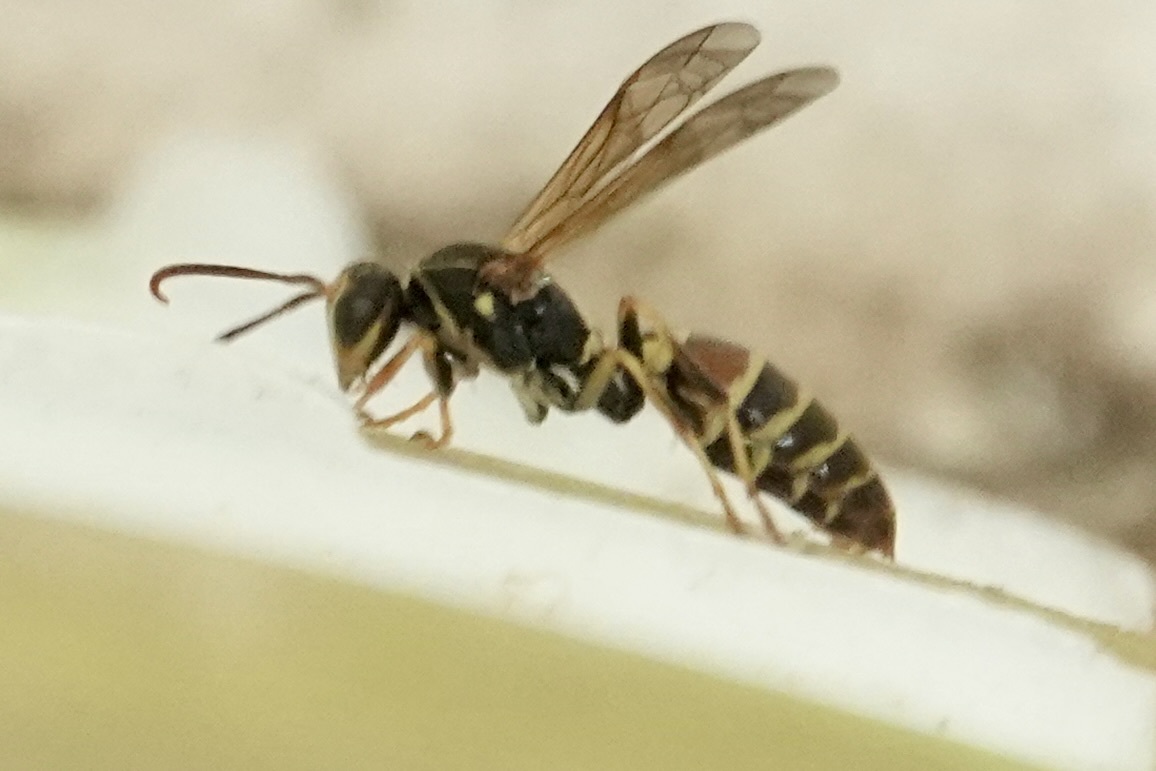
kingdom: Animalia
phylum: Arthropoda
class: Insecta
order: Hymenoptera
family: Eumenidae
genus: Polistes
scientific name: Polistes dorsalis
